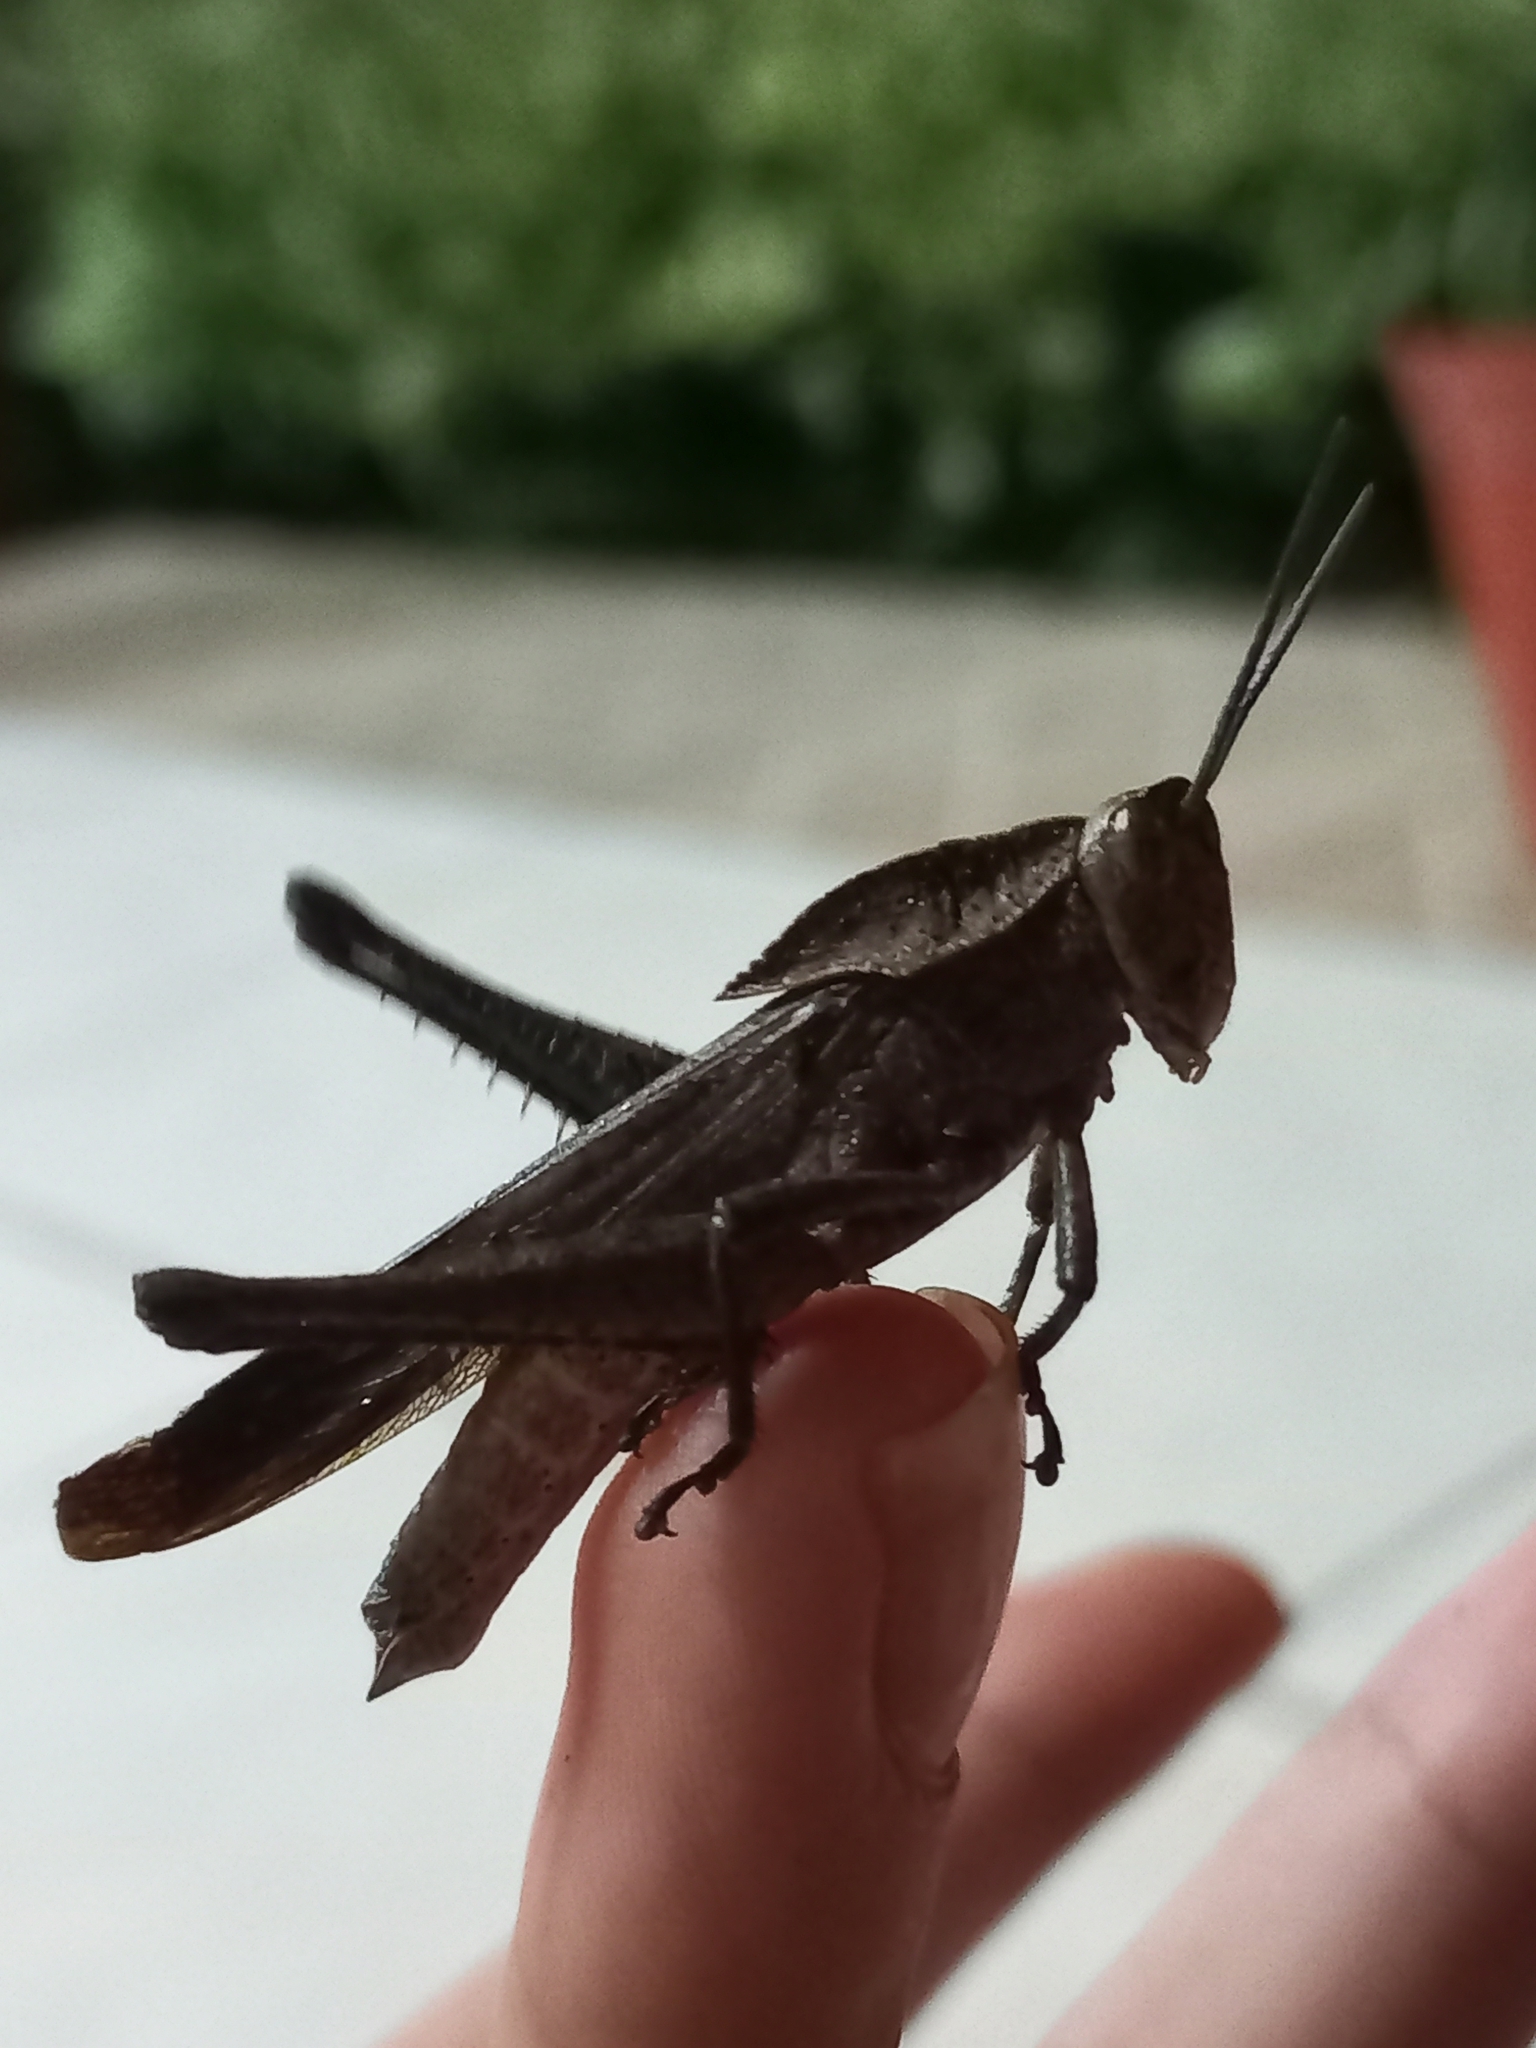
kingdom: Animalia
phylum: Arthropoda
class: Insecta
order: Orthoptera
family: Romaleidae
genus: Xyleus
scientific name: Xyleus discoideus
